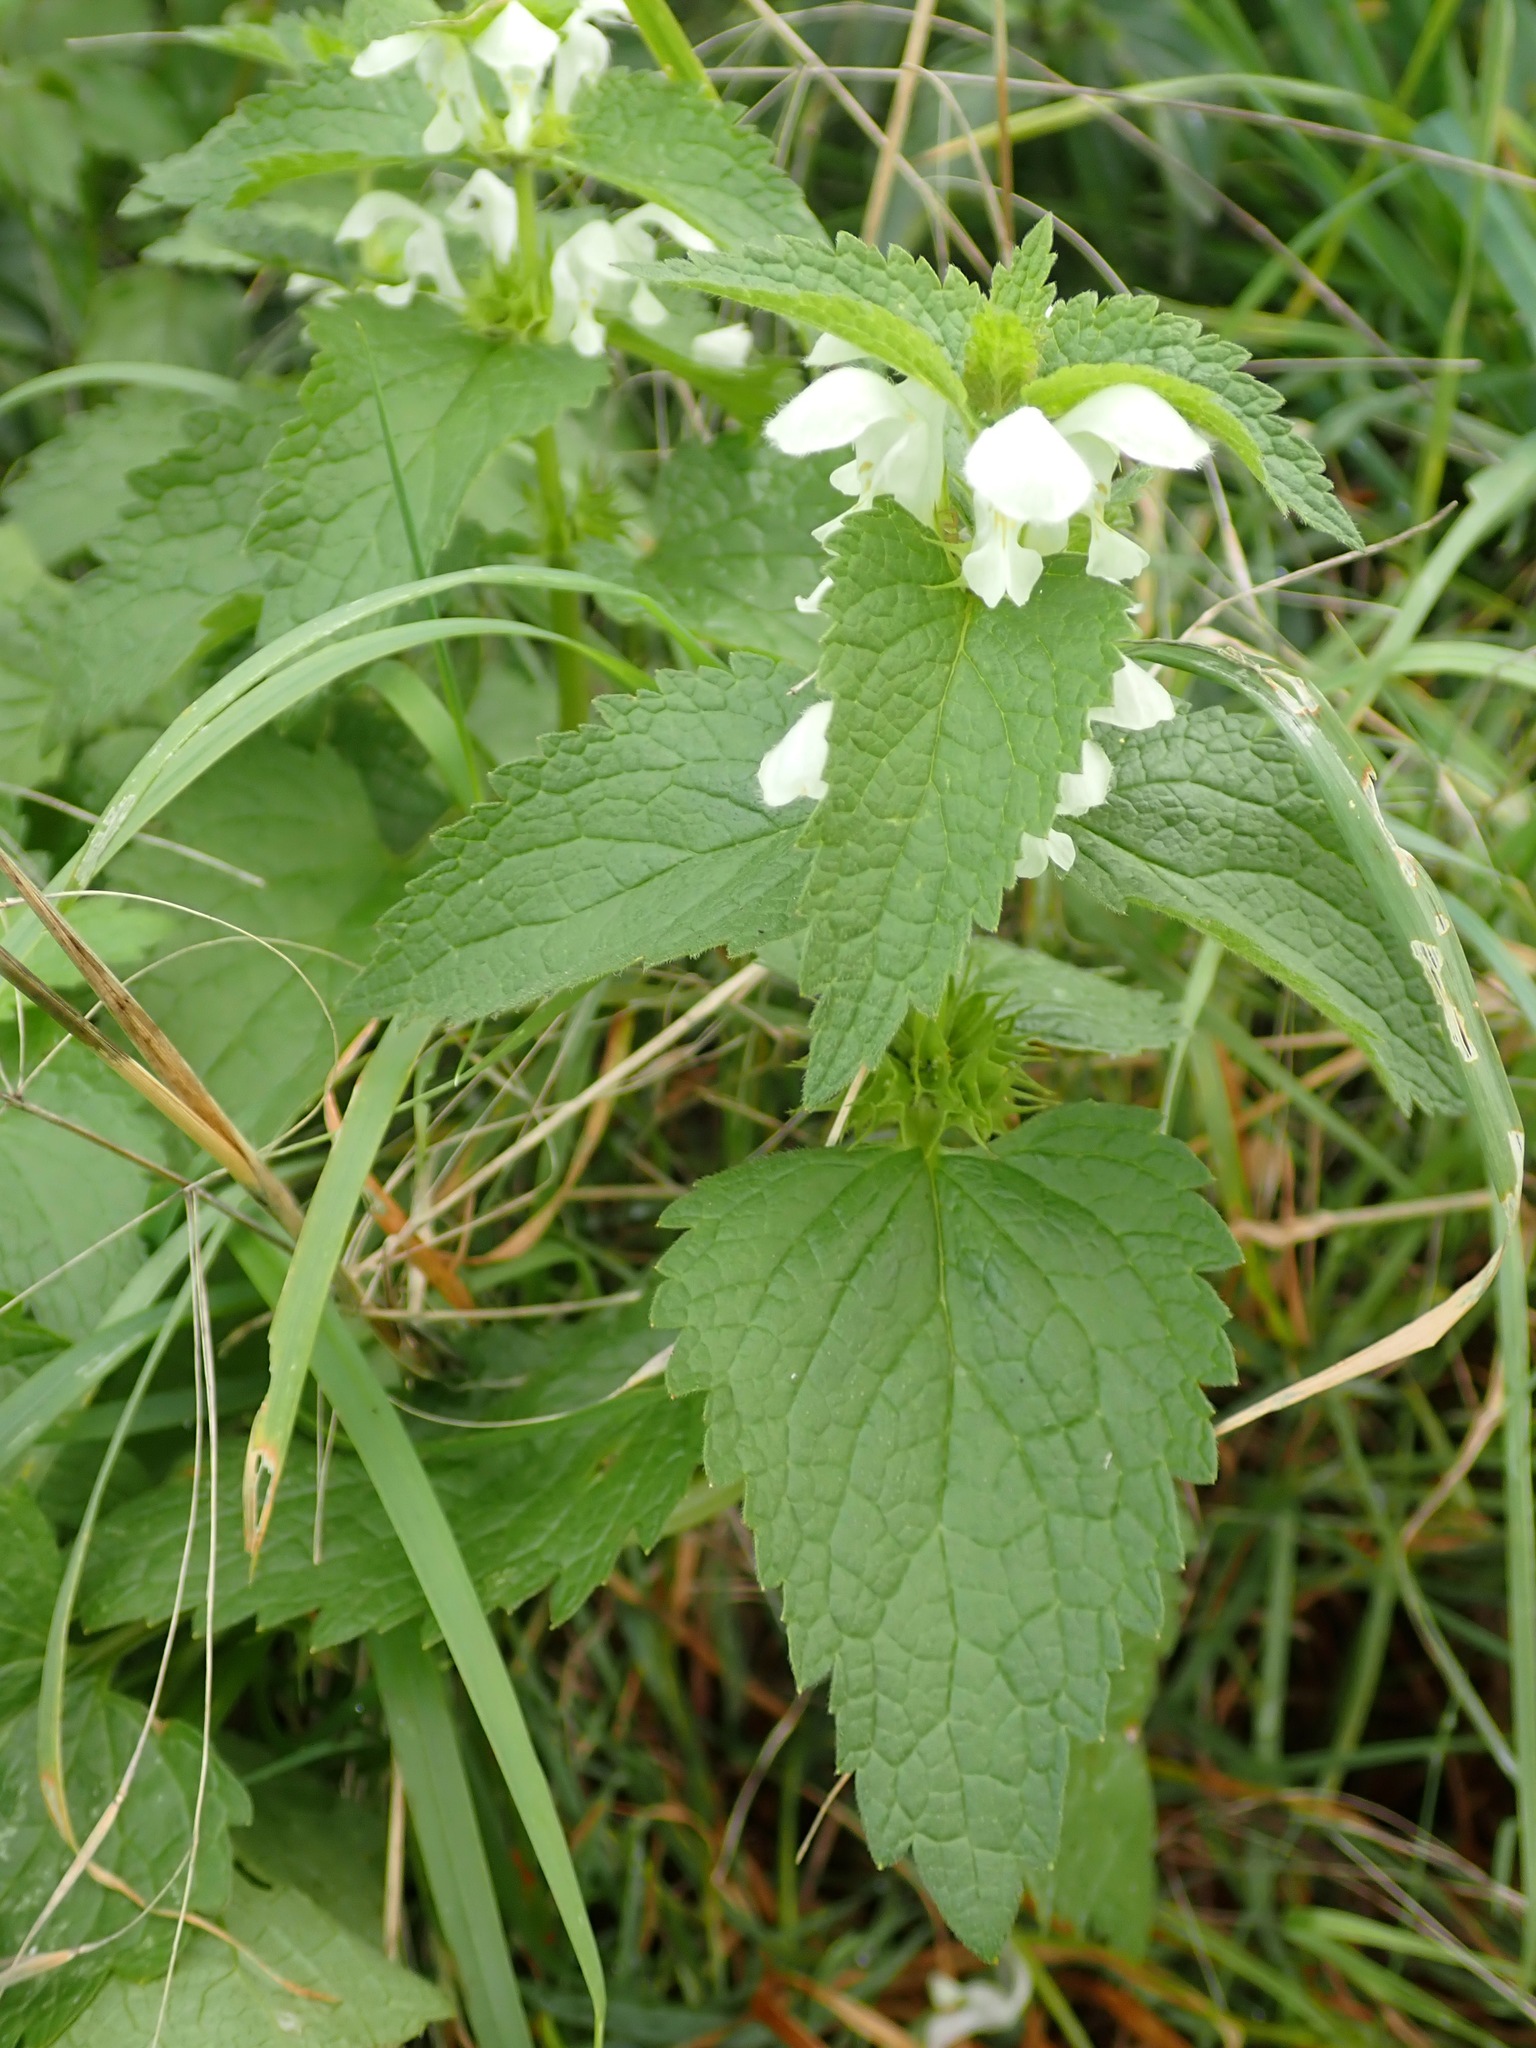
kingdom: Plantae
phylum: Tracheophyta
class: Magnoliopsida
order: Lamiales
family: Lamiaceae
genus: Lamium
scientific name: Lamium album
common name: White dead-nettle
